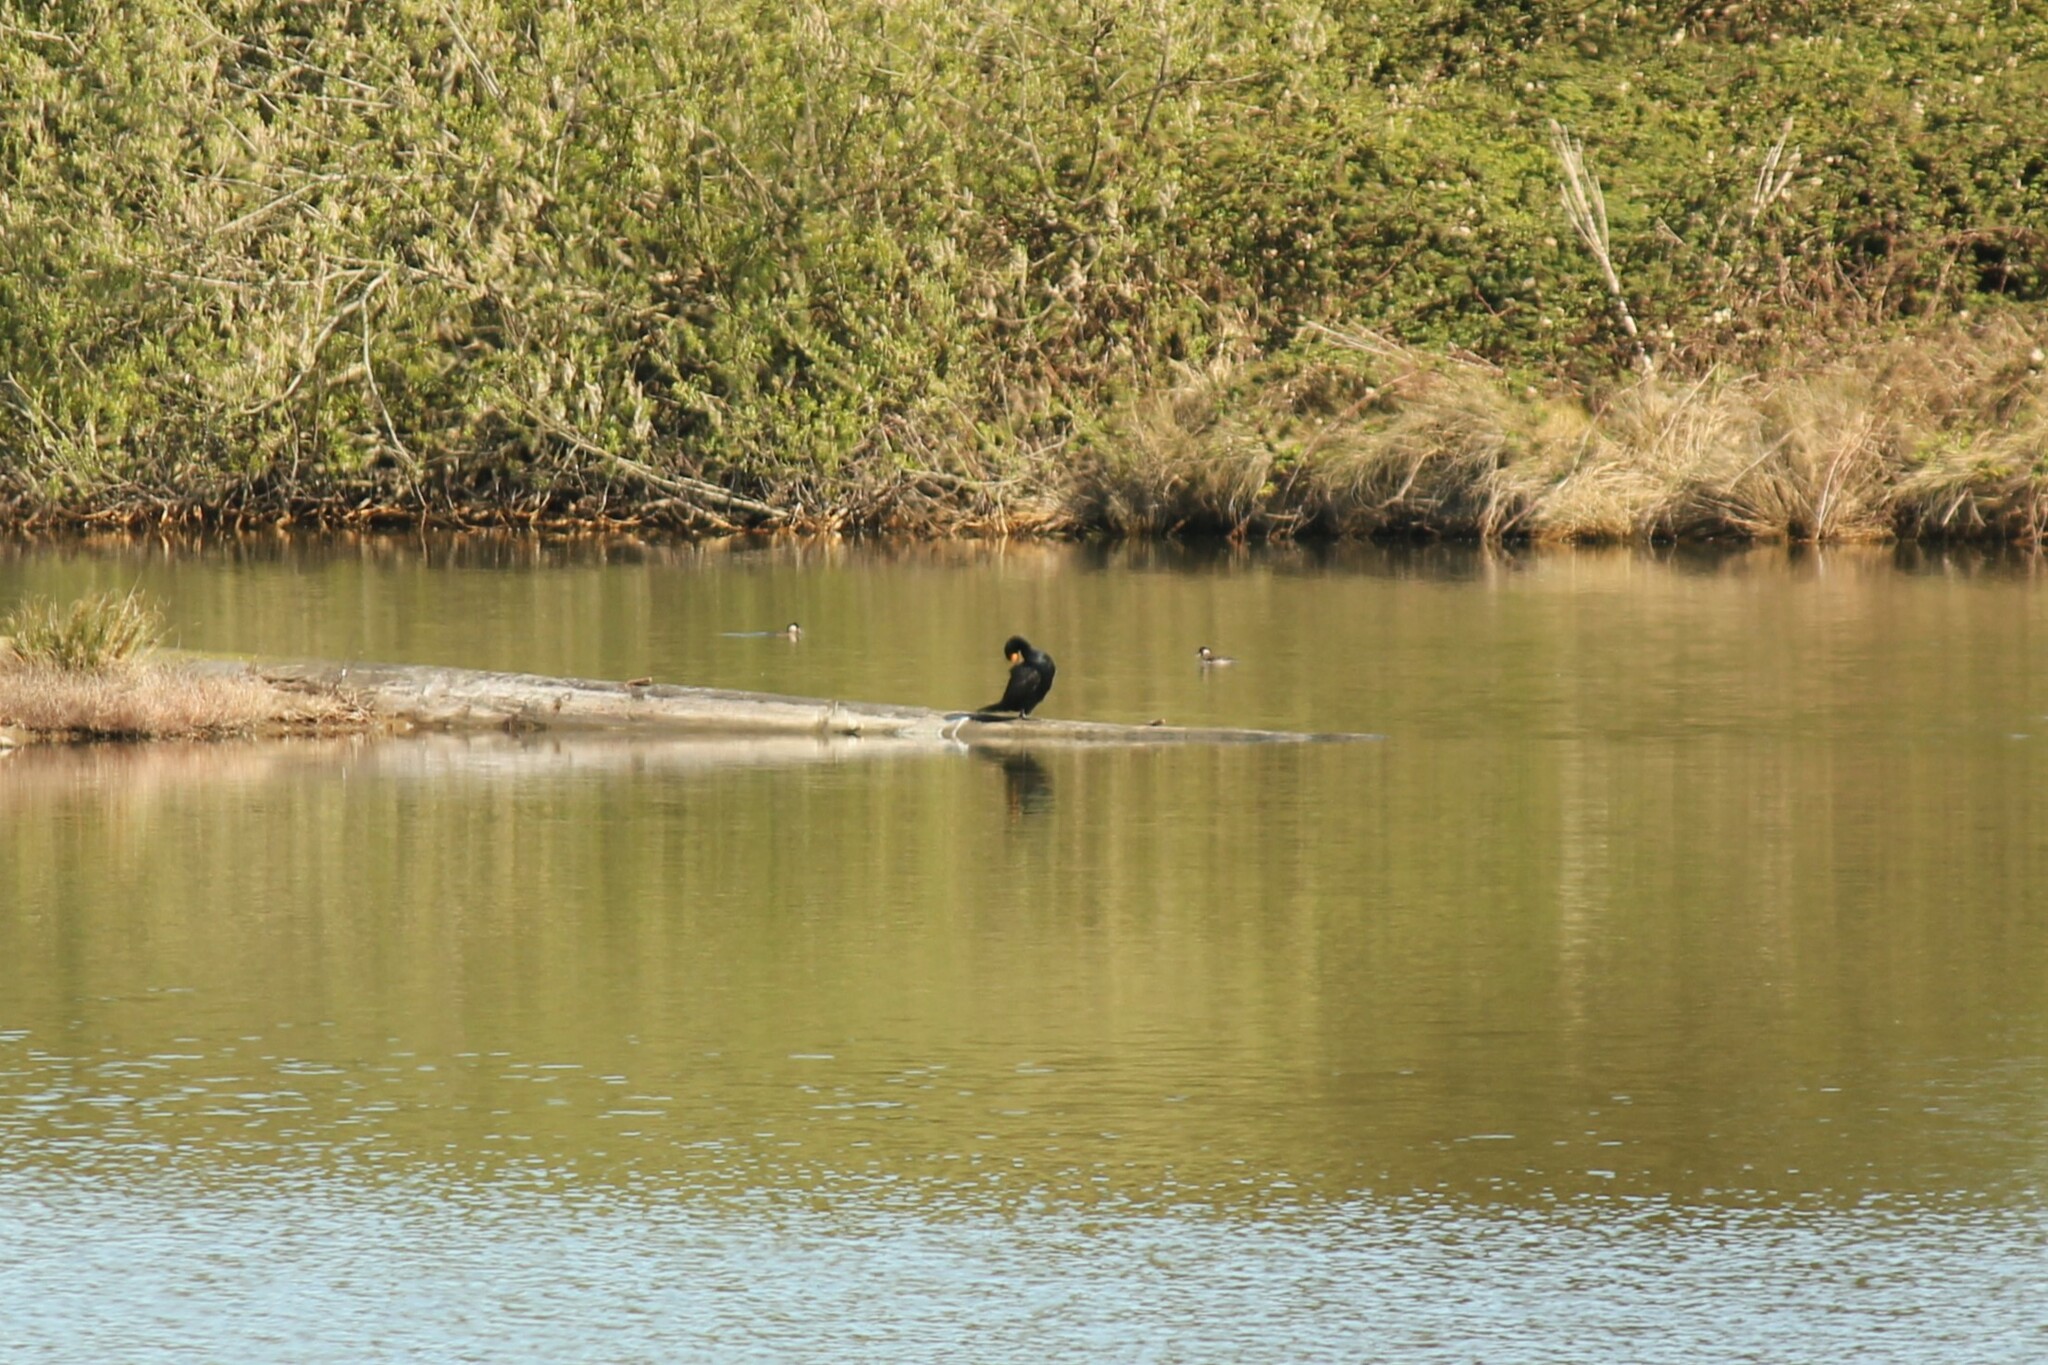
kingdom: Animalia
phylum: Chordata
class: Aves
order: Suliformes
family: Phalacrocoracidae
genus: Phalacrocorax
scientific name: Phalacrocorax auritus
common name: Double-crested cormorant
